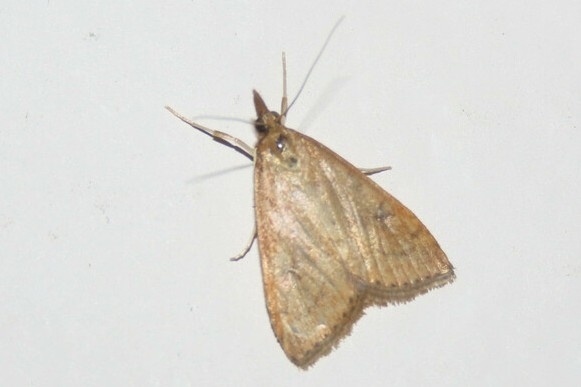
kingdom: Animalia
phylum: Arthropoda
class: Insecta
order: Lepidoptera
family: Crambidae
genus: Udea
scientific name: Udea rubigalis
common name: Celery leaftier moth
